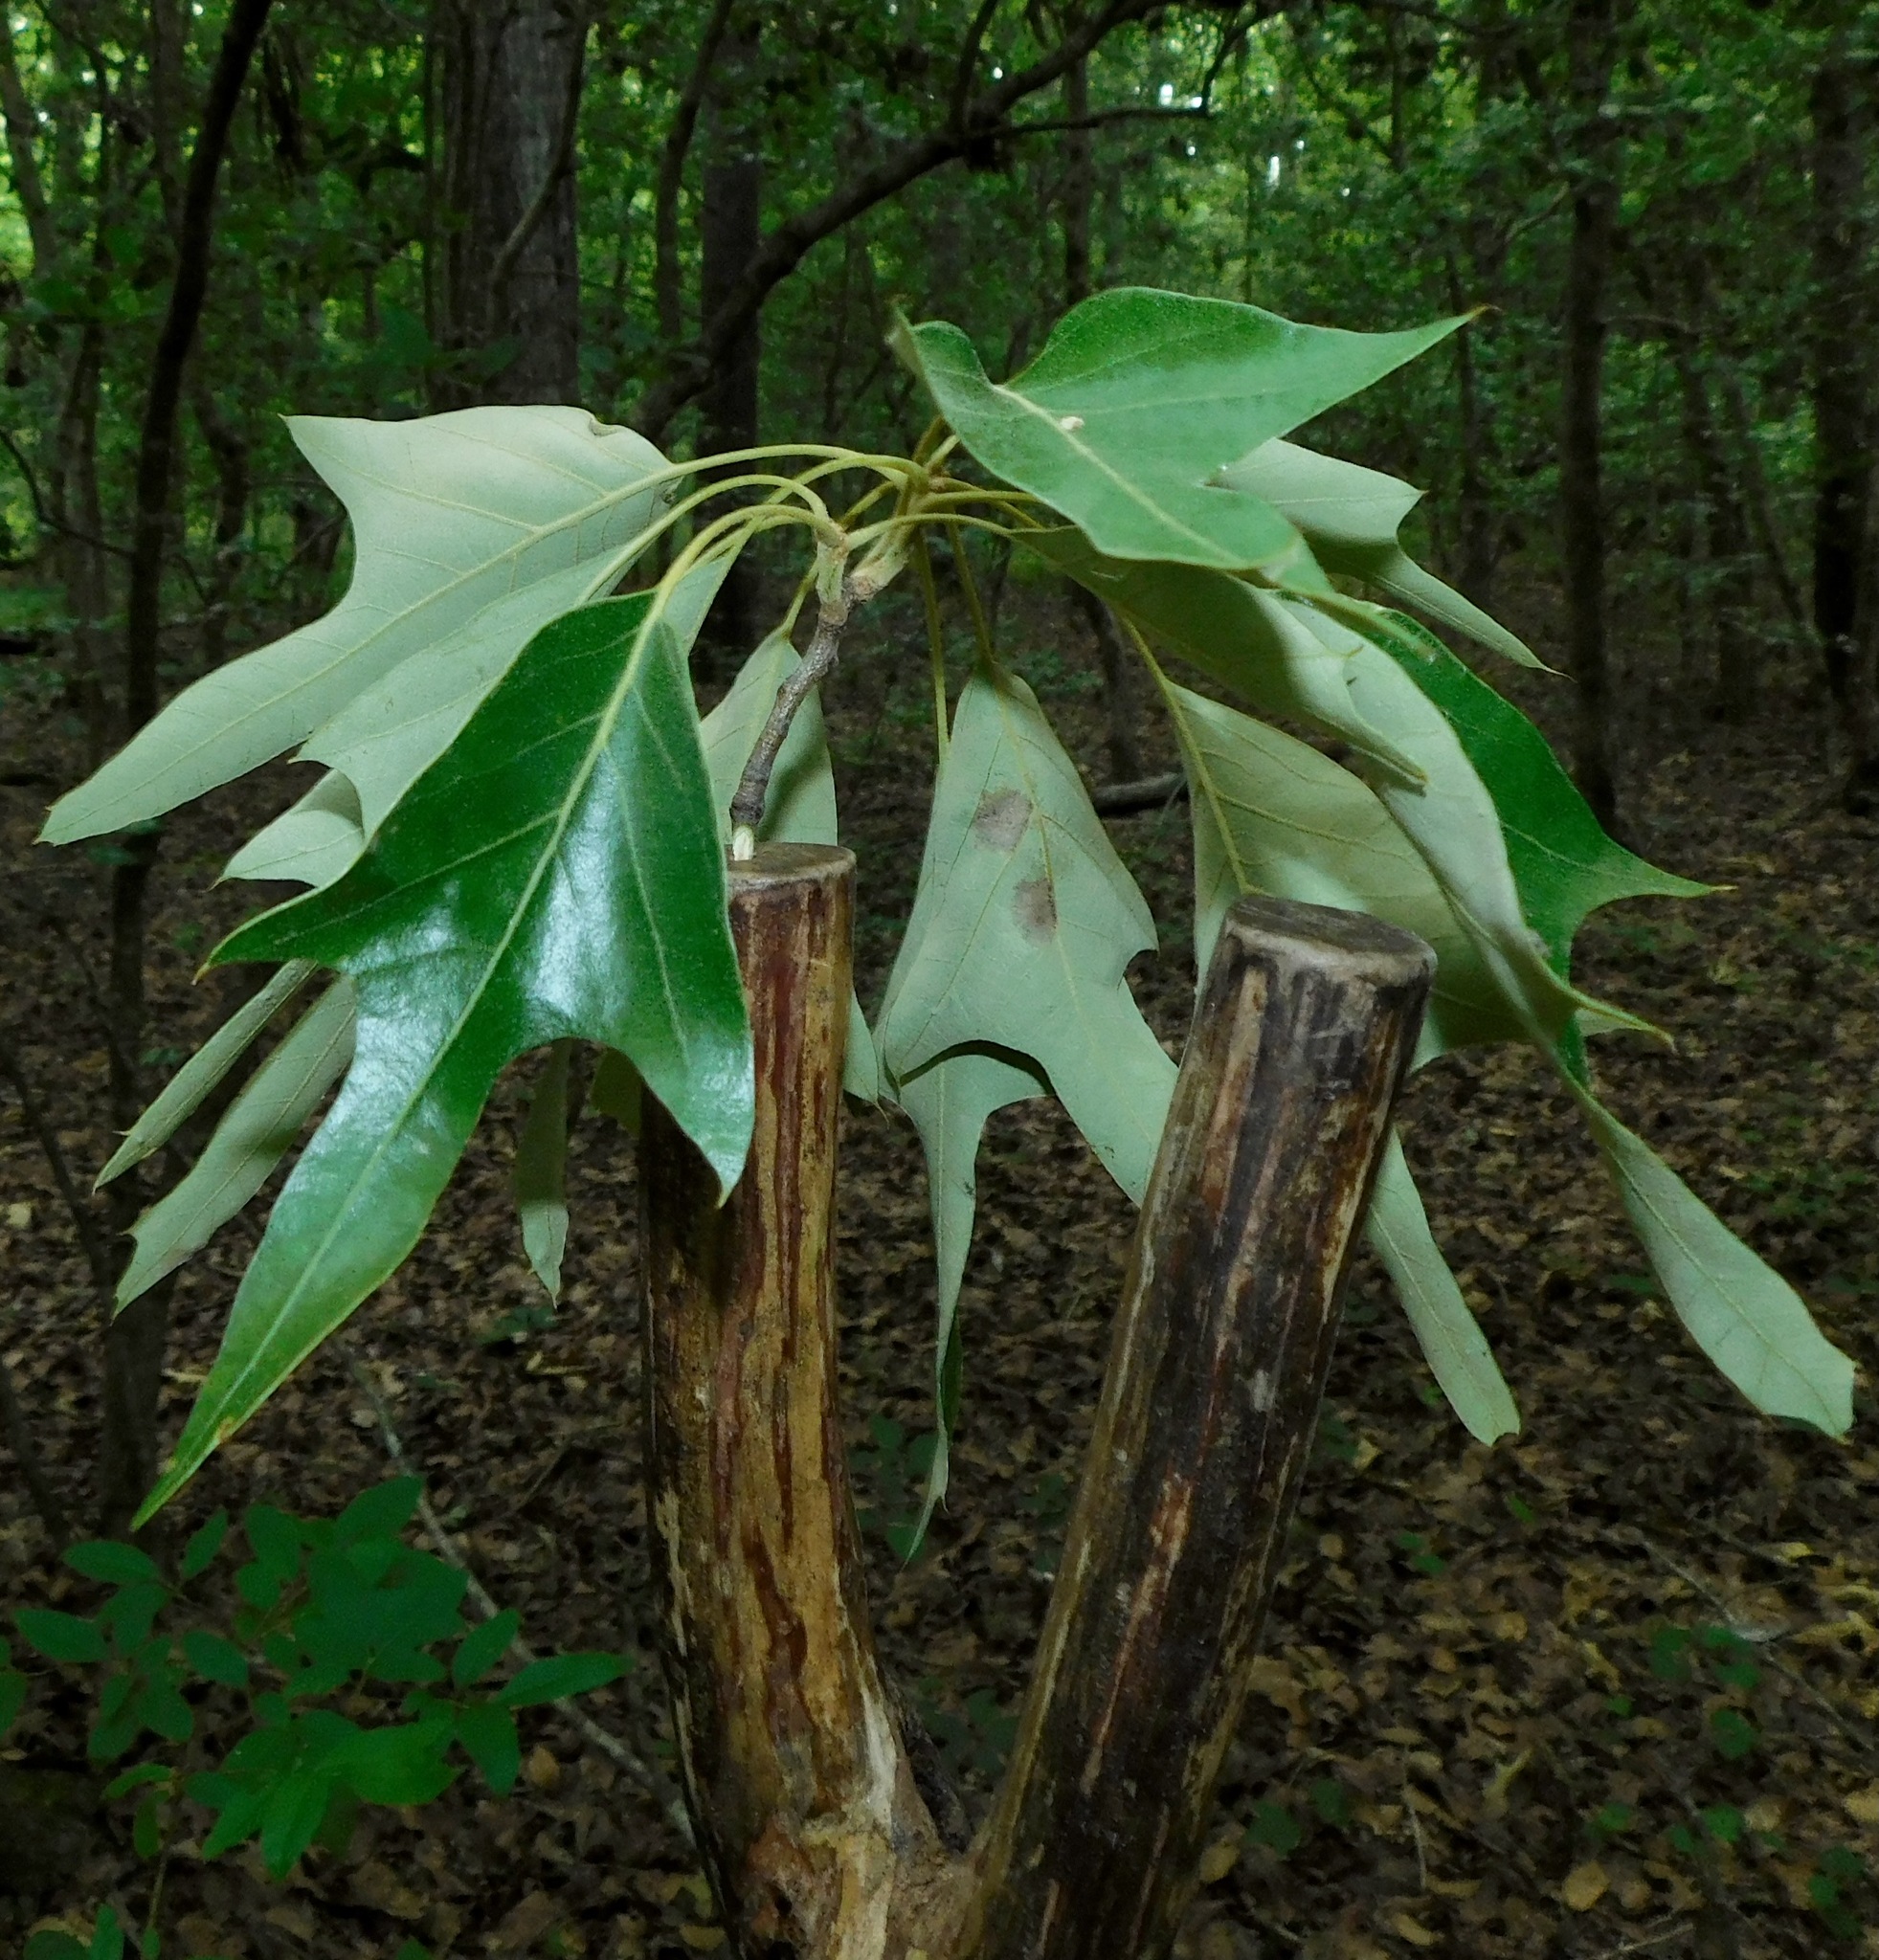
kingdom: Plantae
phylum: Tracheophyta
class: Magnoliopsida
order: Fagales
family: Fagaceae
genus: Quercus
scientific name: Quercus falcata
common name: Southern red oak
